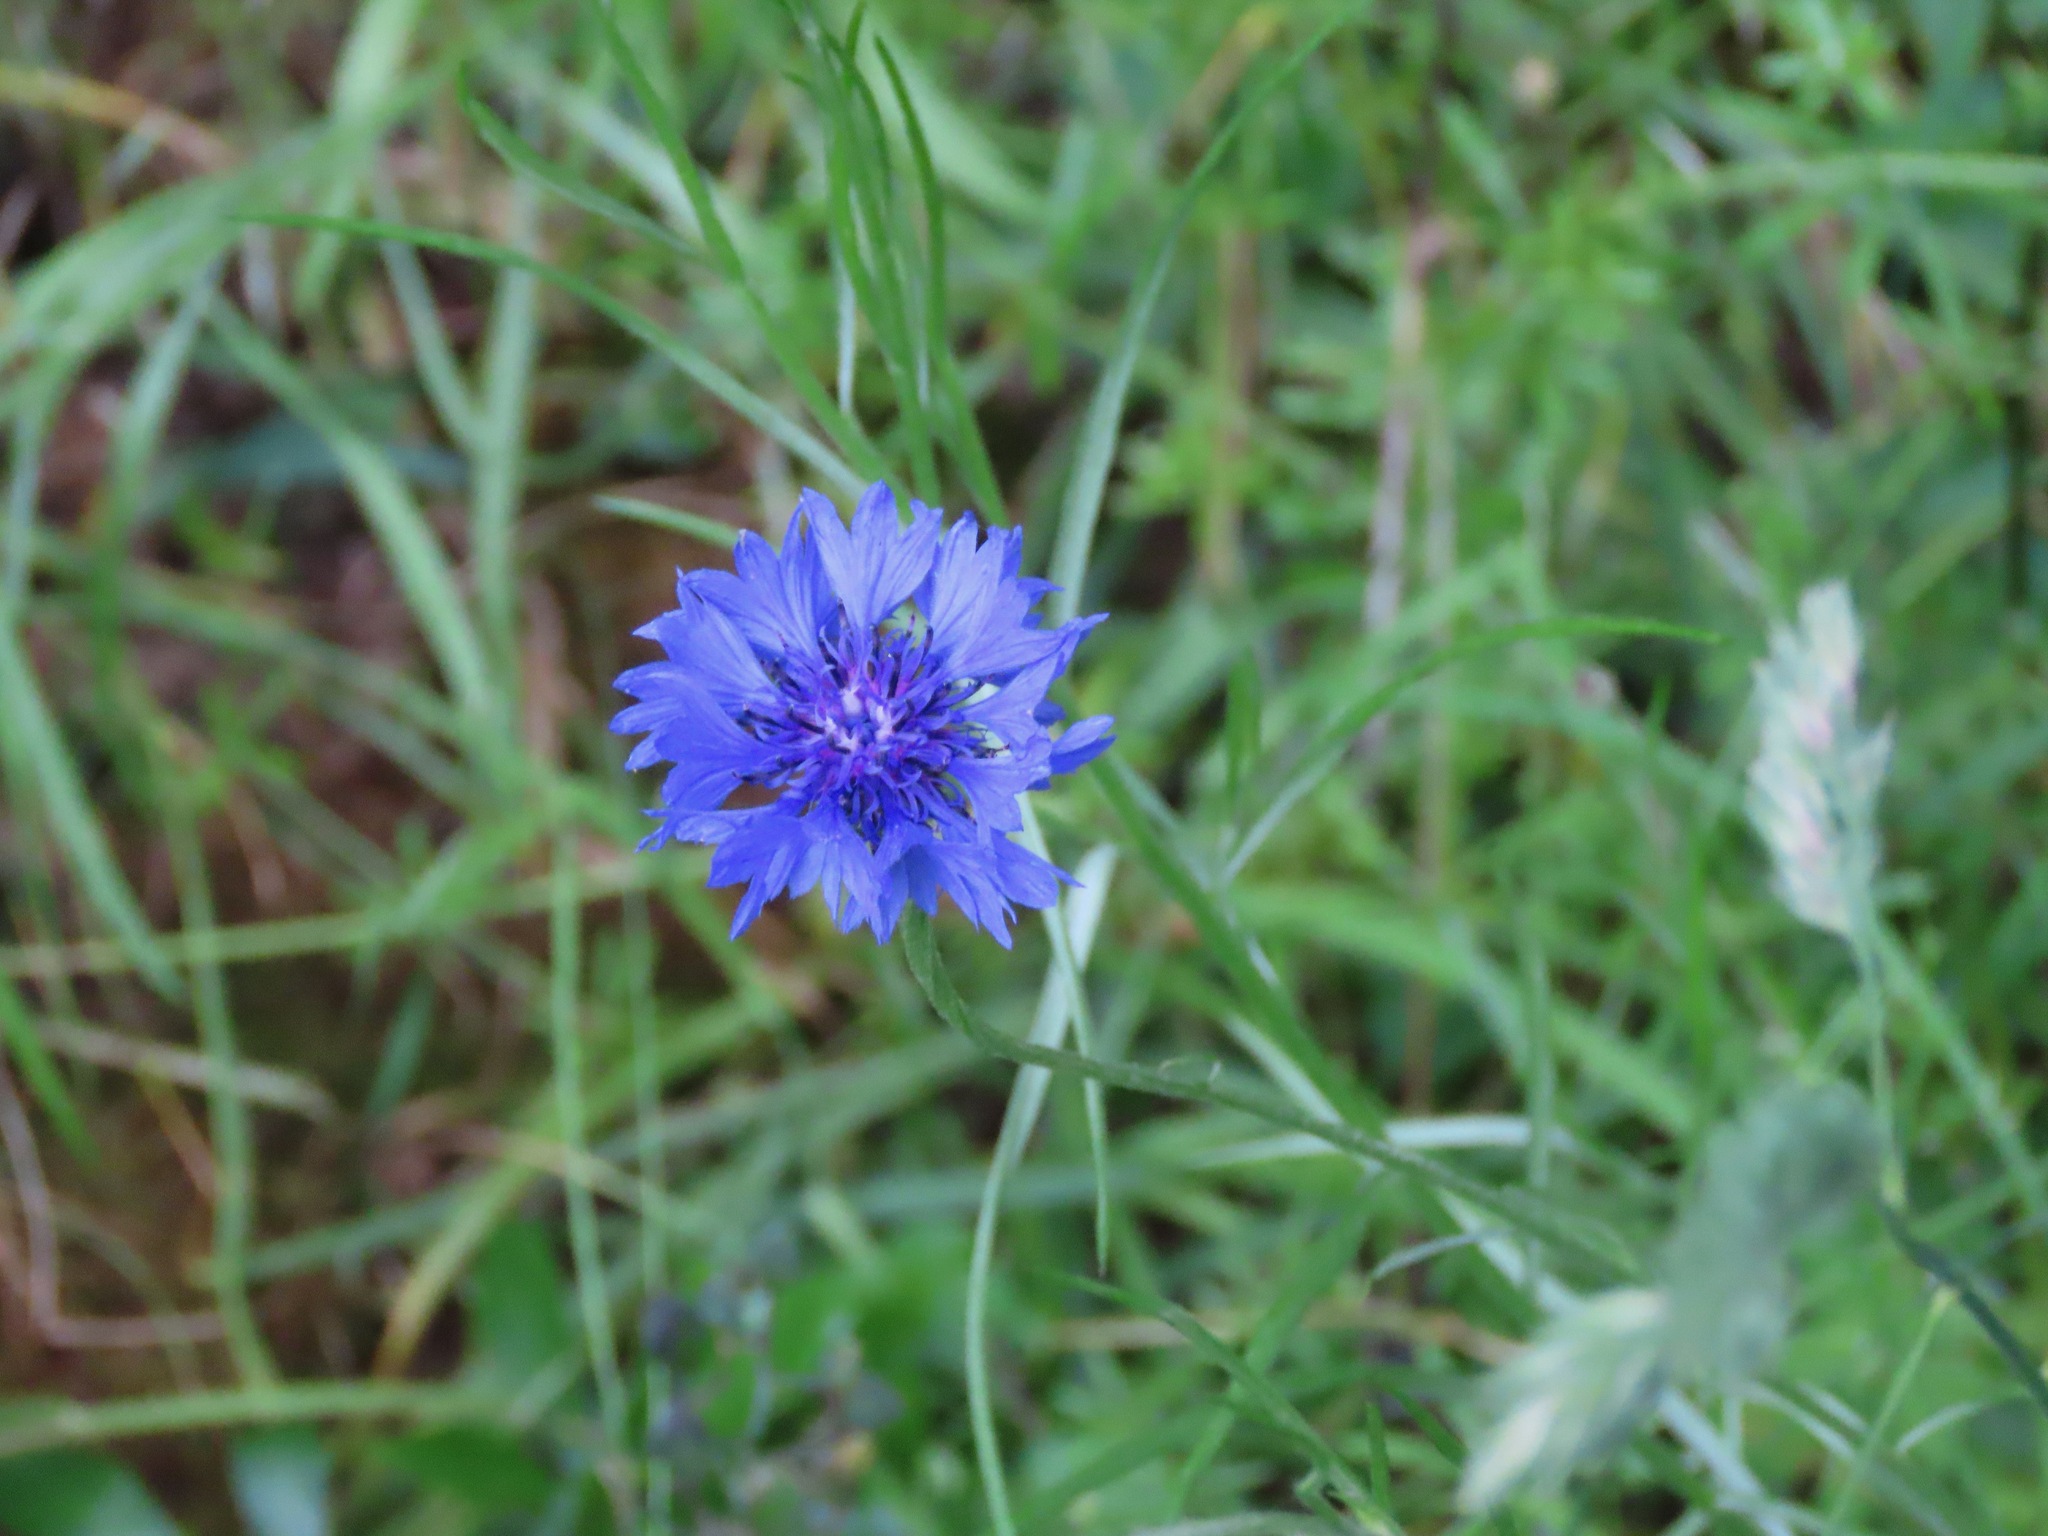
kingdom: Plantae
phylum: Tracheophyta
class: Magnoliopsida
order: Asterales
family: Asteraceae
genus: Centaurea
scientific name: Centaurea cyanus
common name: Cornflower
